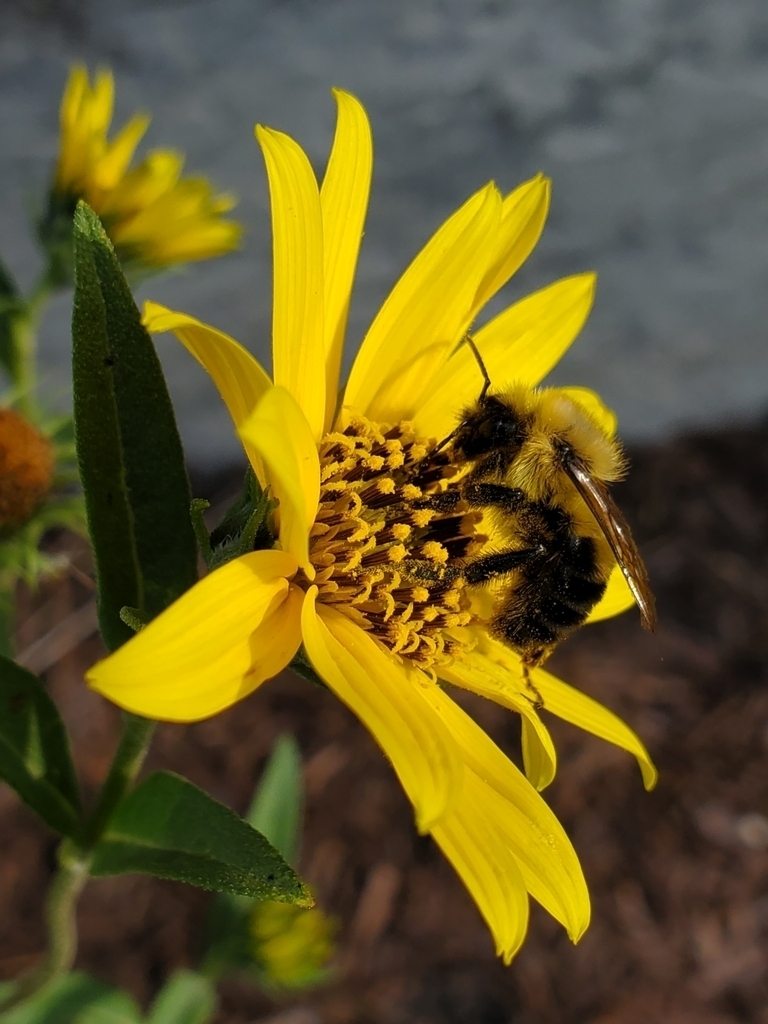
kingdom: Animalia
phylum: Arthropoda
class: Insecta
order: Hymenoptera
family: Apidae
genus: Bombus
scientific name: Bombus bimaculatus
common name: Two-spotted bumble bee
